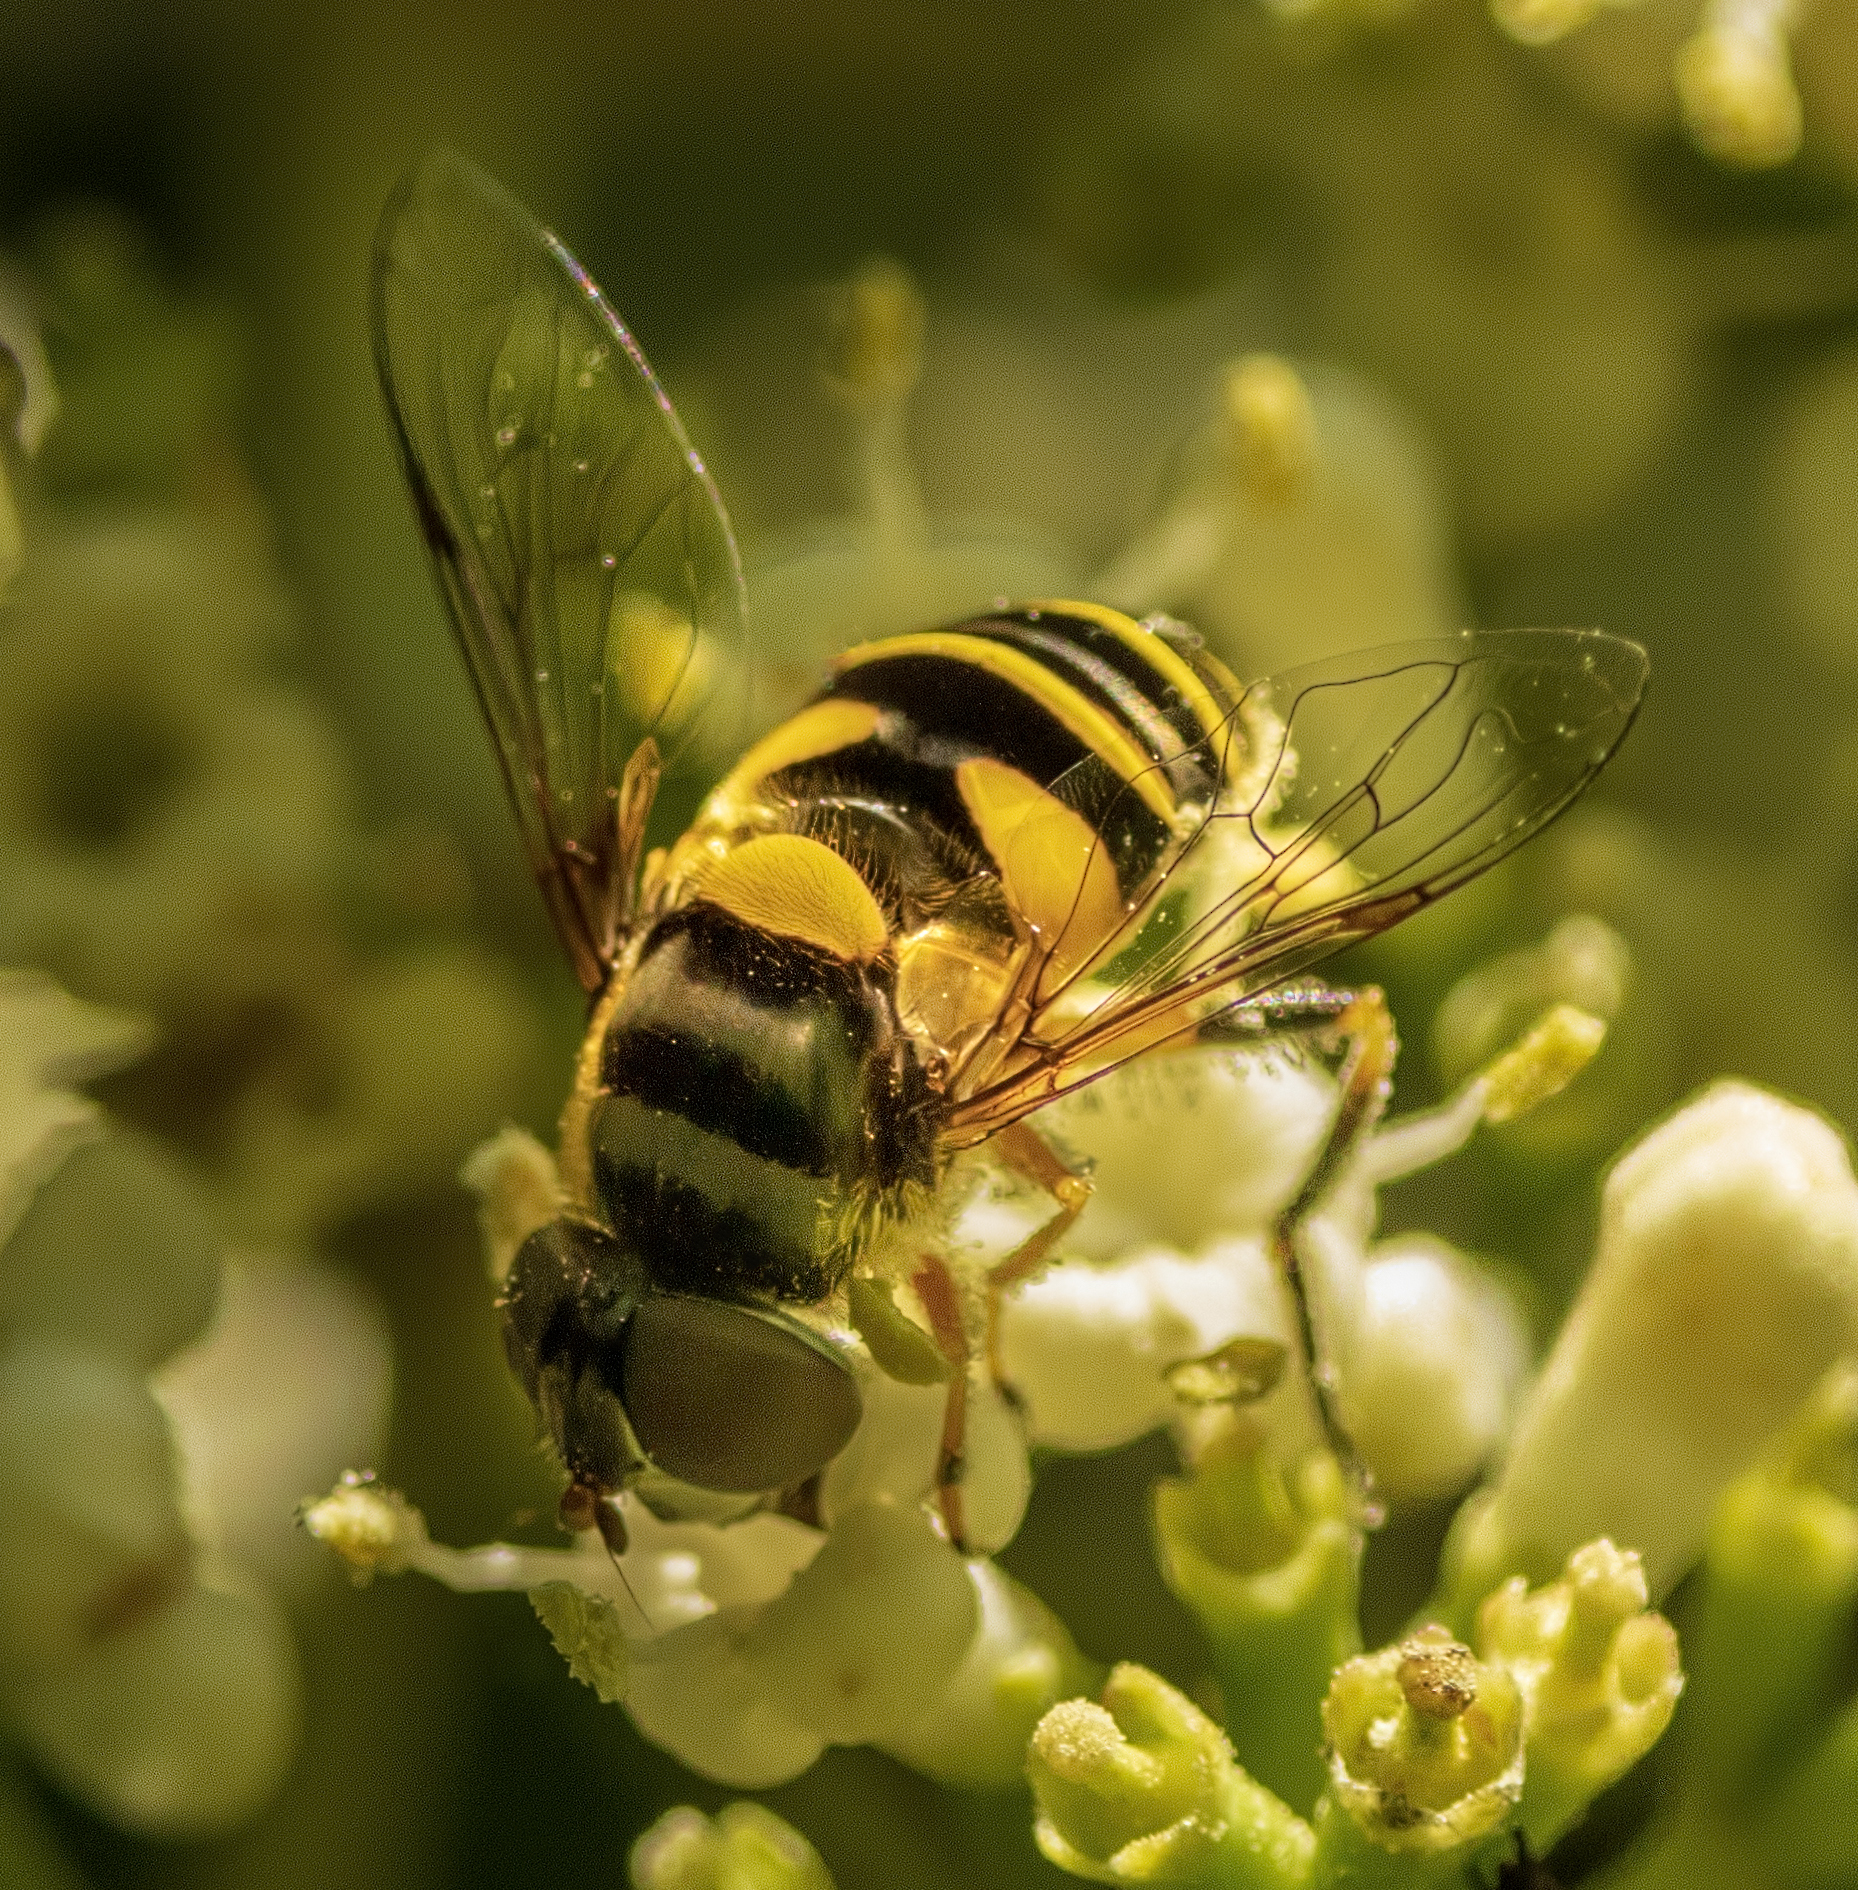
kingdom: Animalia
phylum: Arthropoda
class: Insecta
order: Diptera
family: Syrphidae
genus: Eristalis
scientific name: Eristalis transversa
